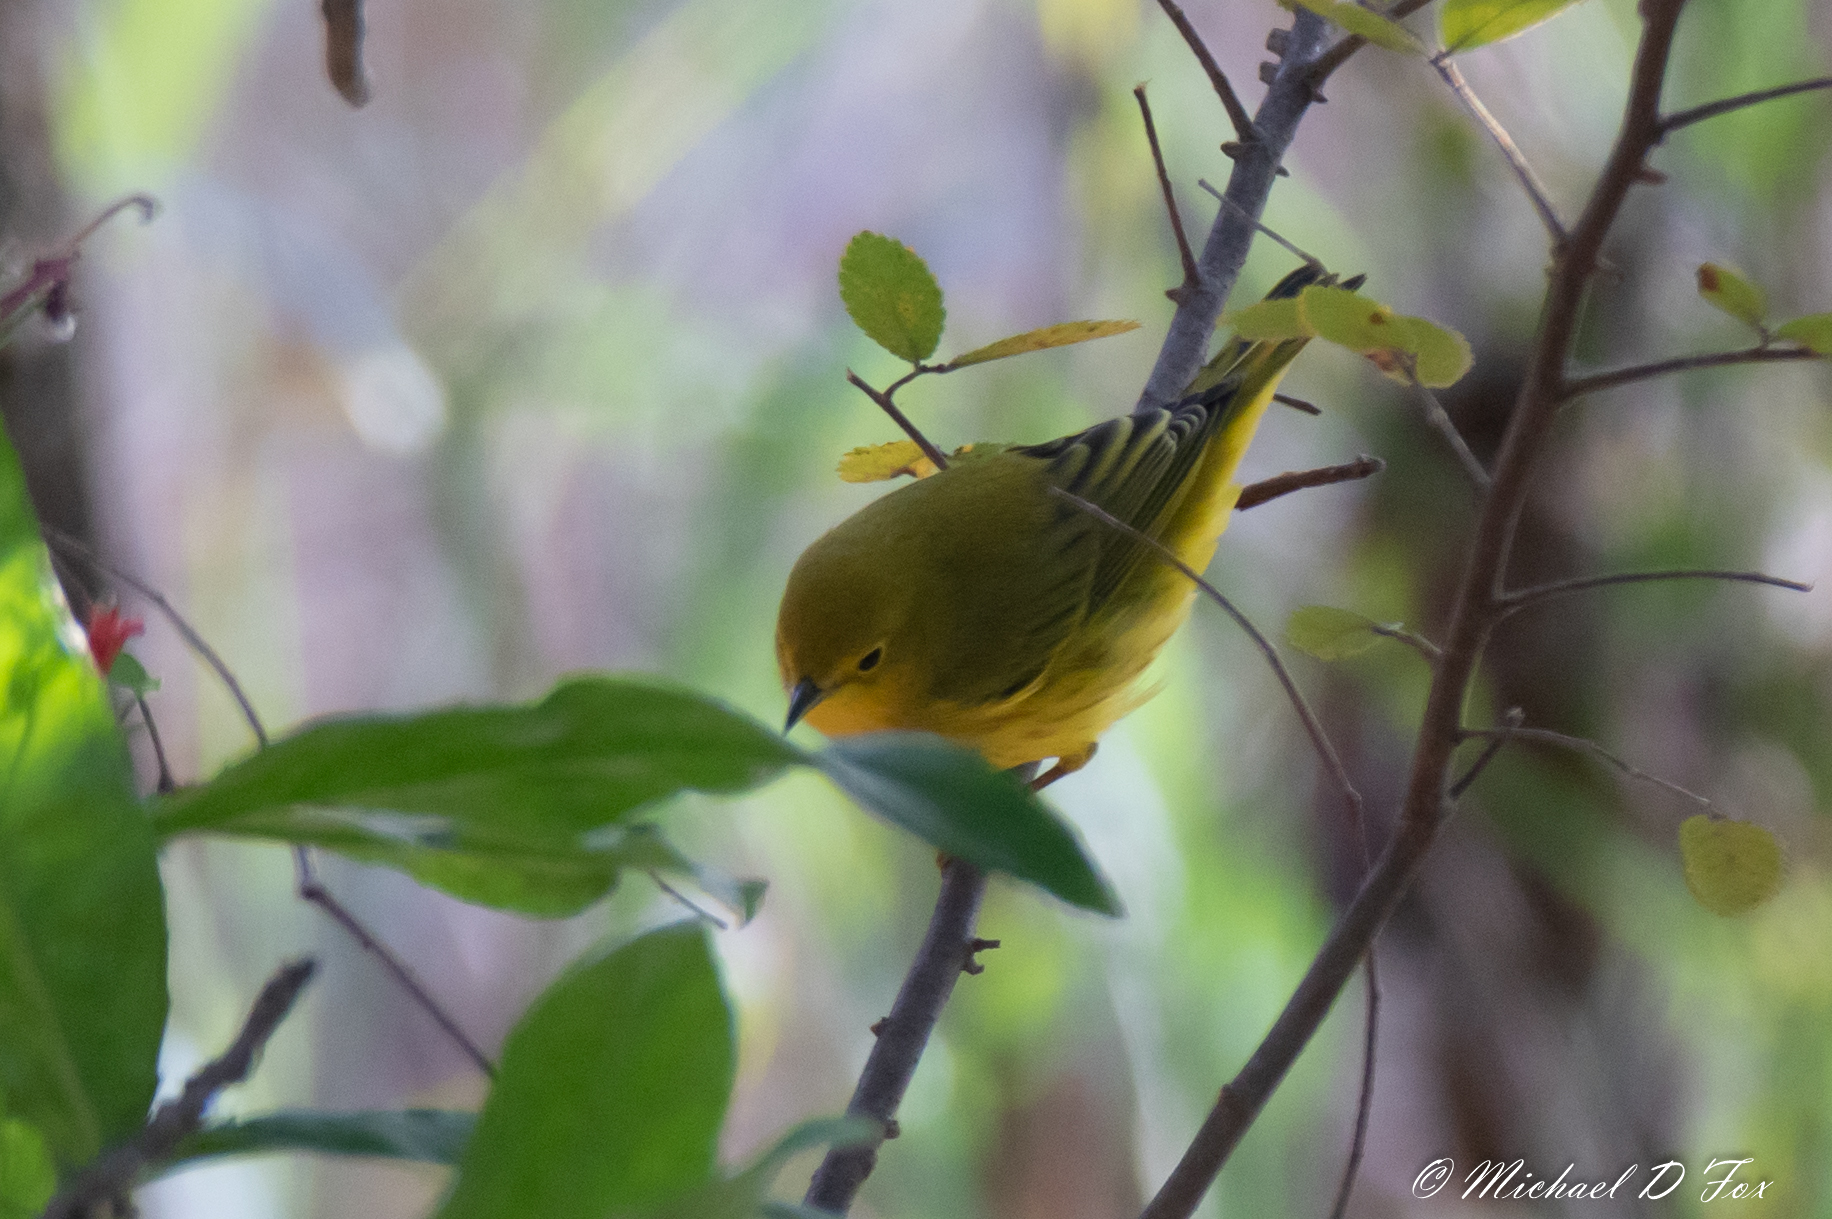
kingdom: Animalia
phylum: Chordata
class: Aves
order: Passeriformes
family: Parulidae
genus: Setophaga
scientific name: Setophaga petechia
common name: Yellow warbler
